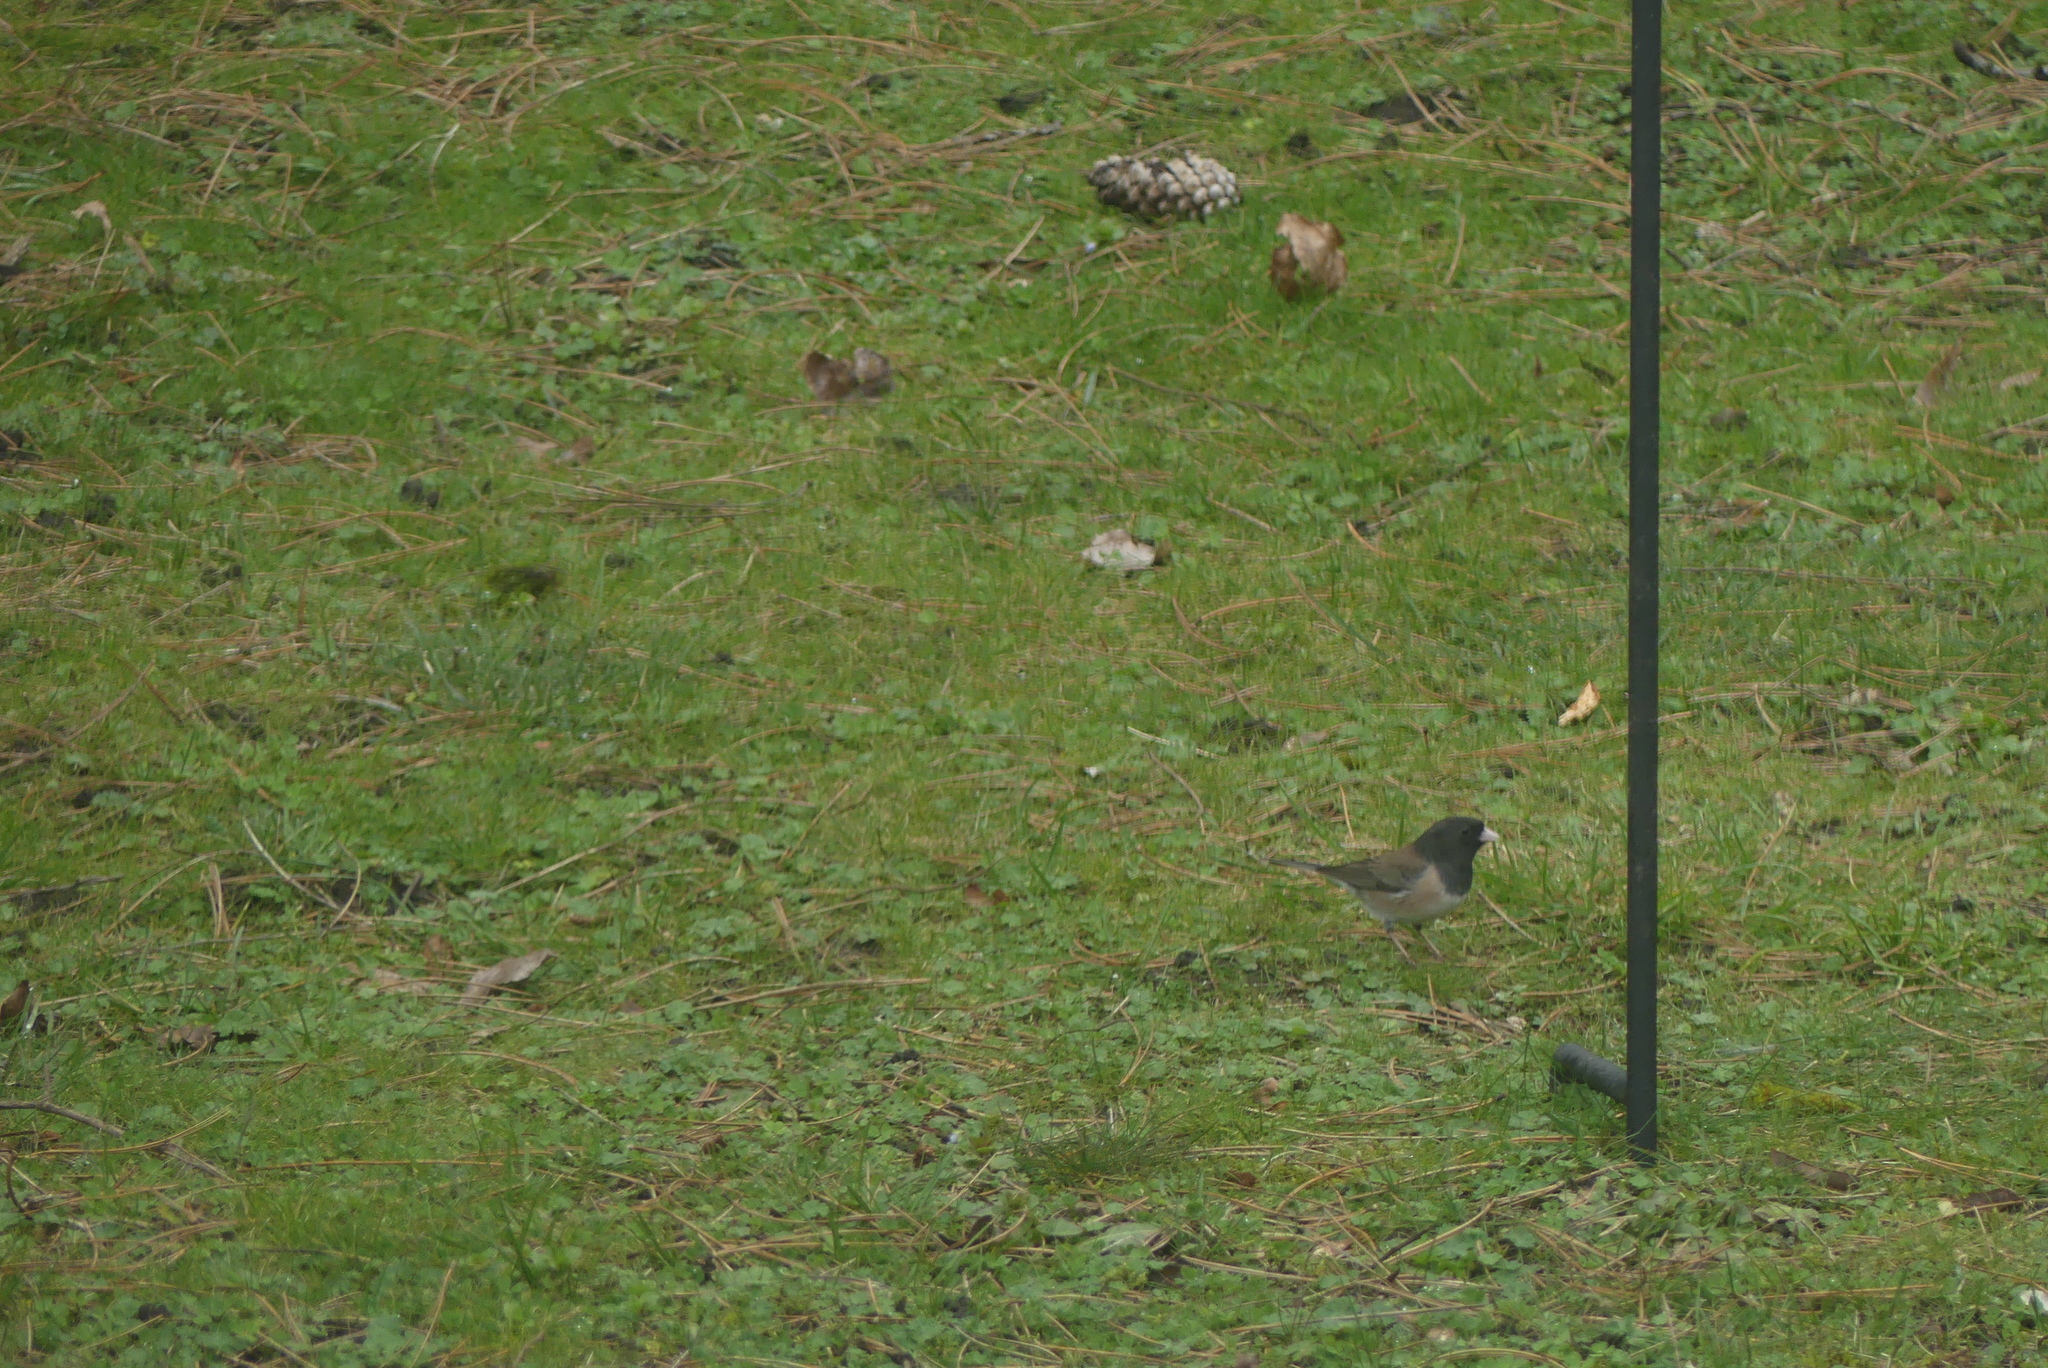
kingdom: Animalia
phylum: Chordata
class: Aves
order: Passeriformes
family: Passerellidae
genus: Junco
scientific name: Junco hyemalis
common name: Dark-eyed junco
